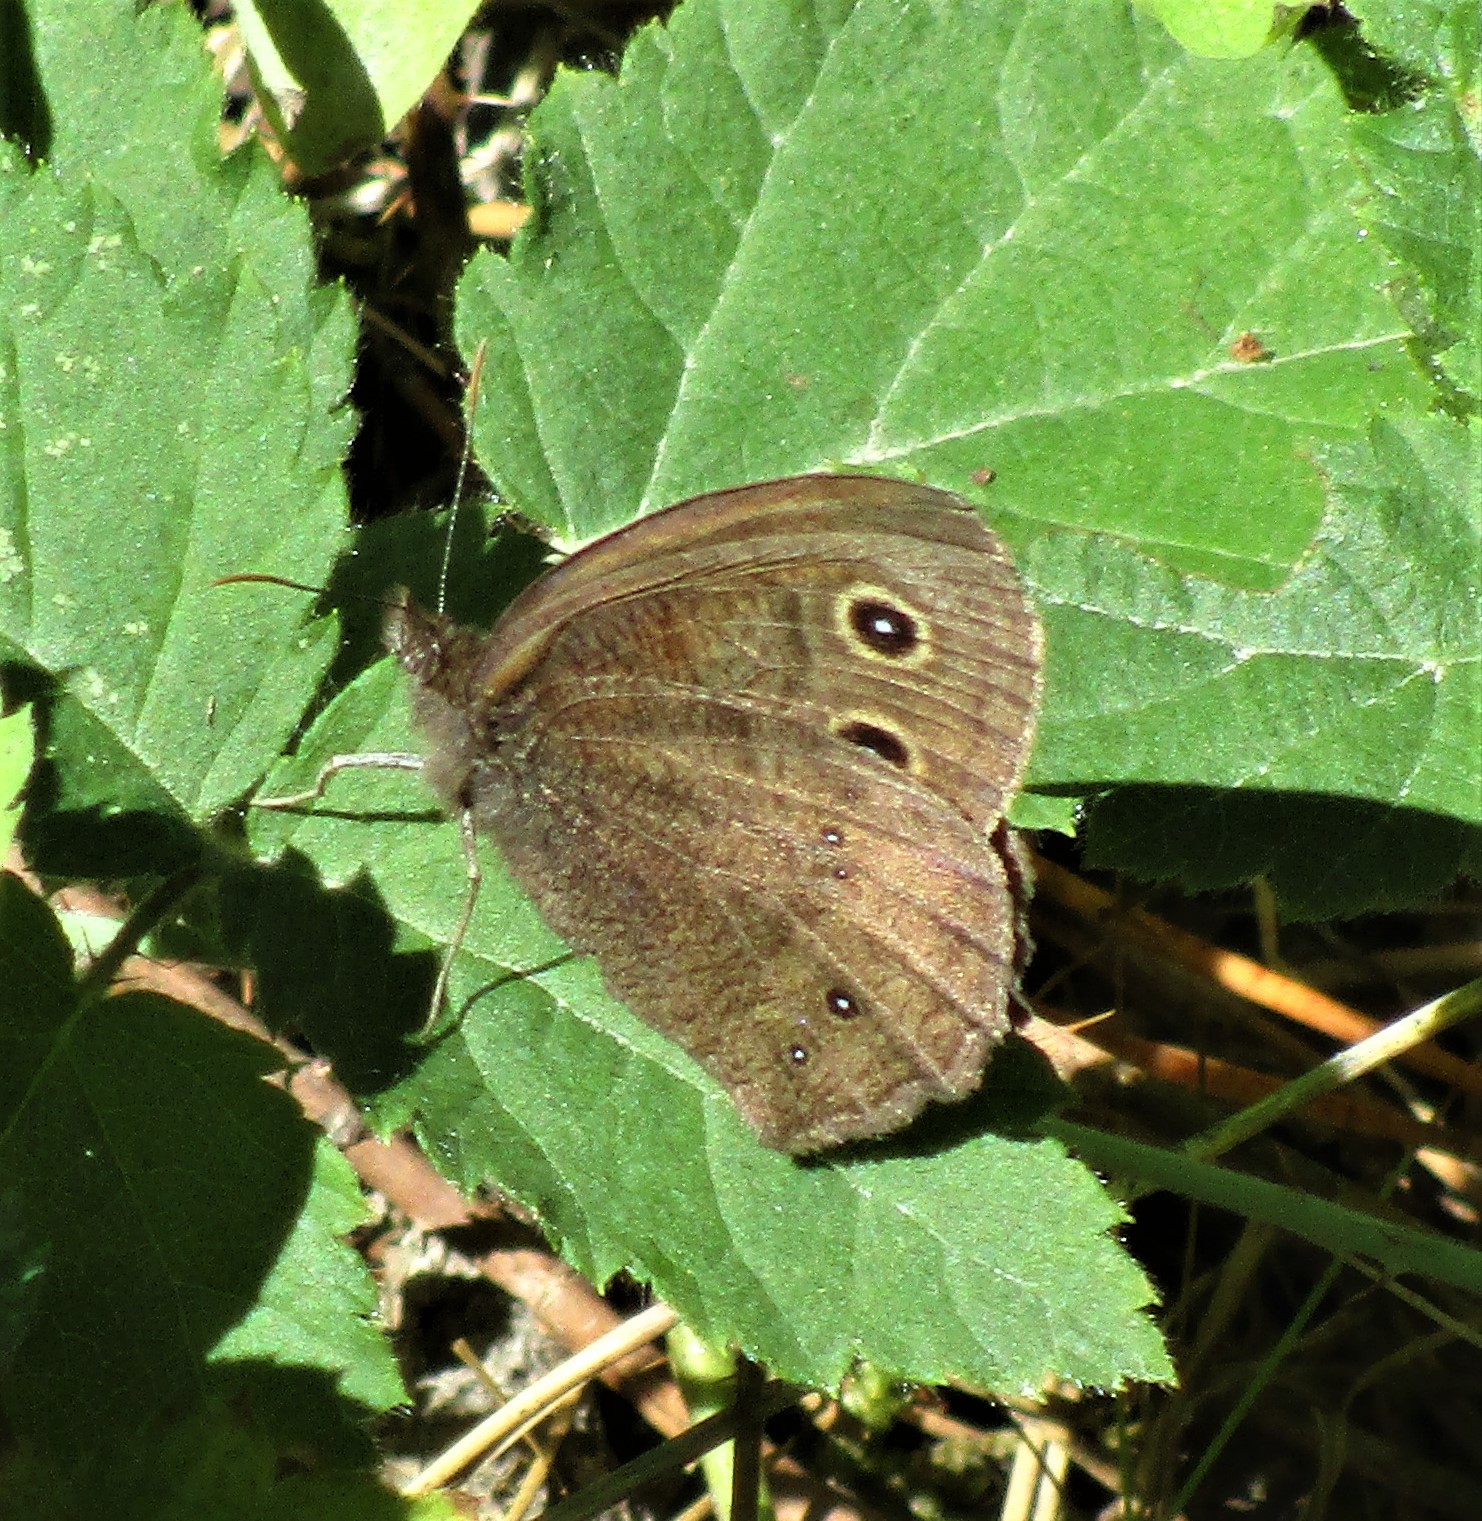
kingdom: Animalia
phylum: Arthropoda
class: Insecta
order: Lepidoptera
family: Nymphalidae
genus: Cercyonis
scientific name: Cercyonis pegala
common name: Common wood-nymph
